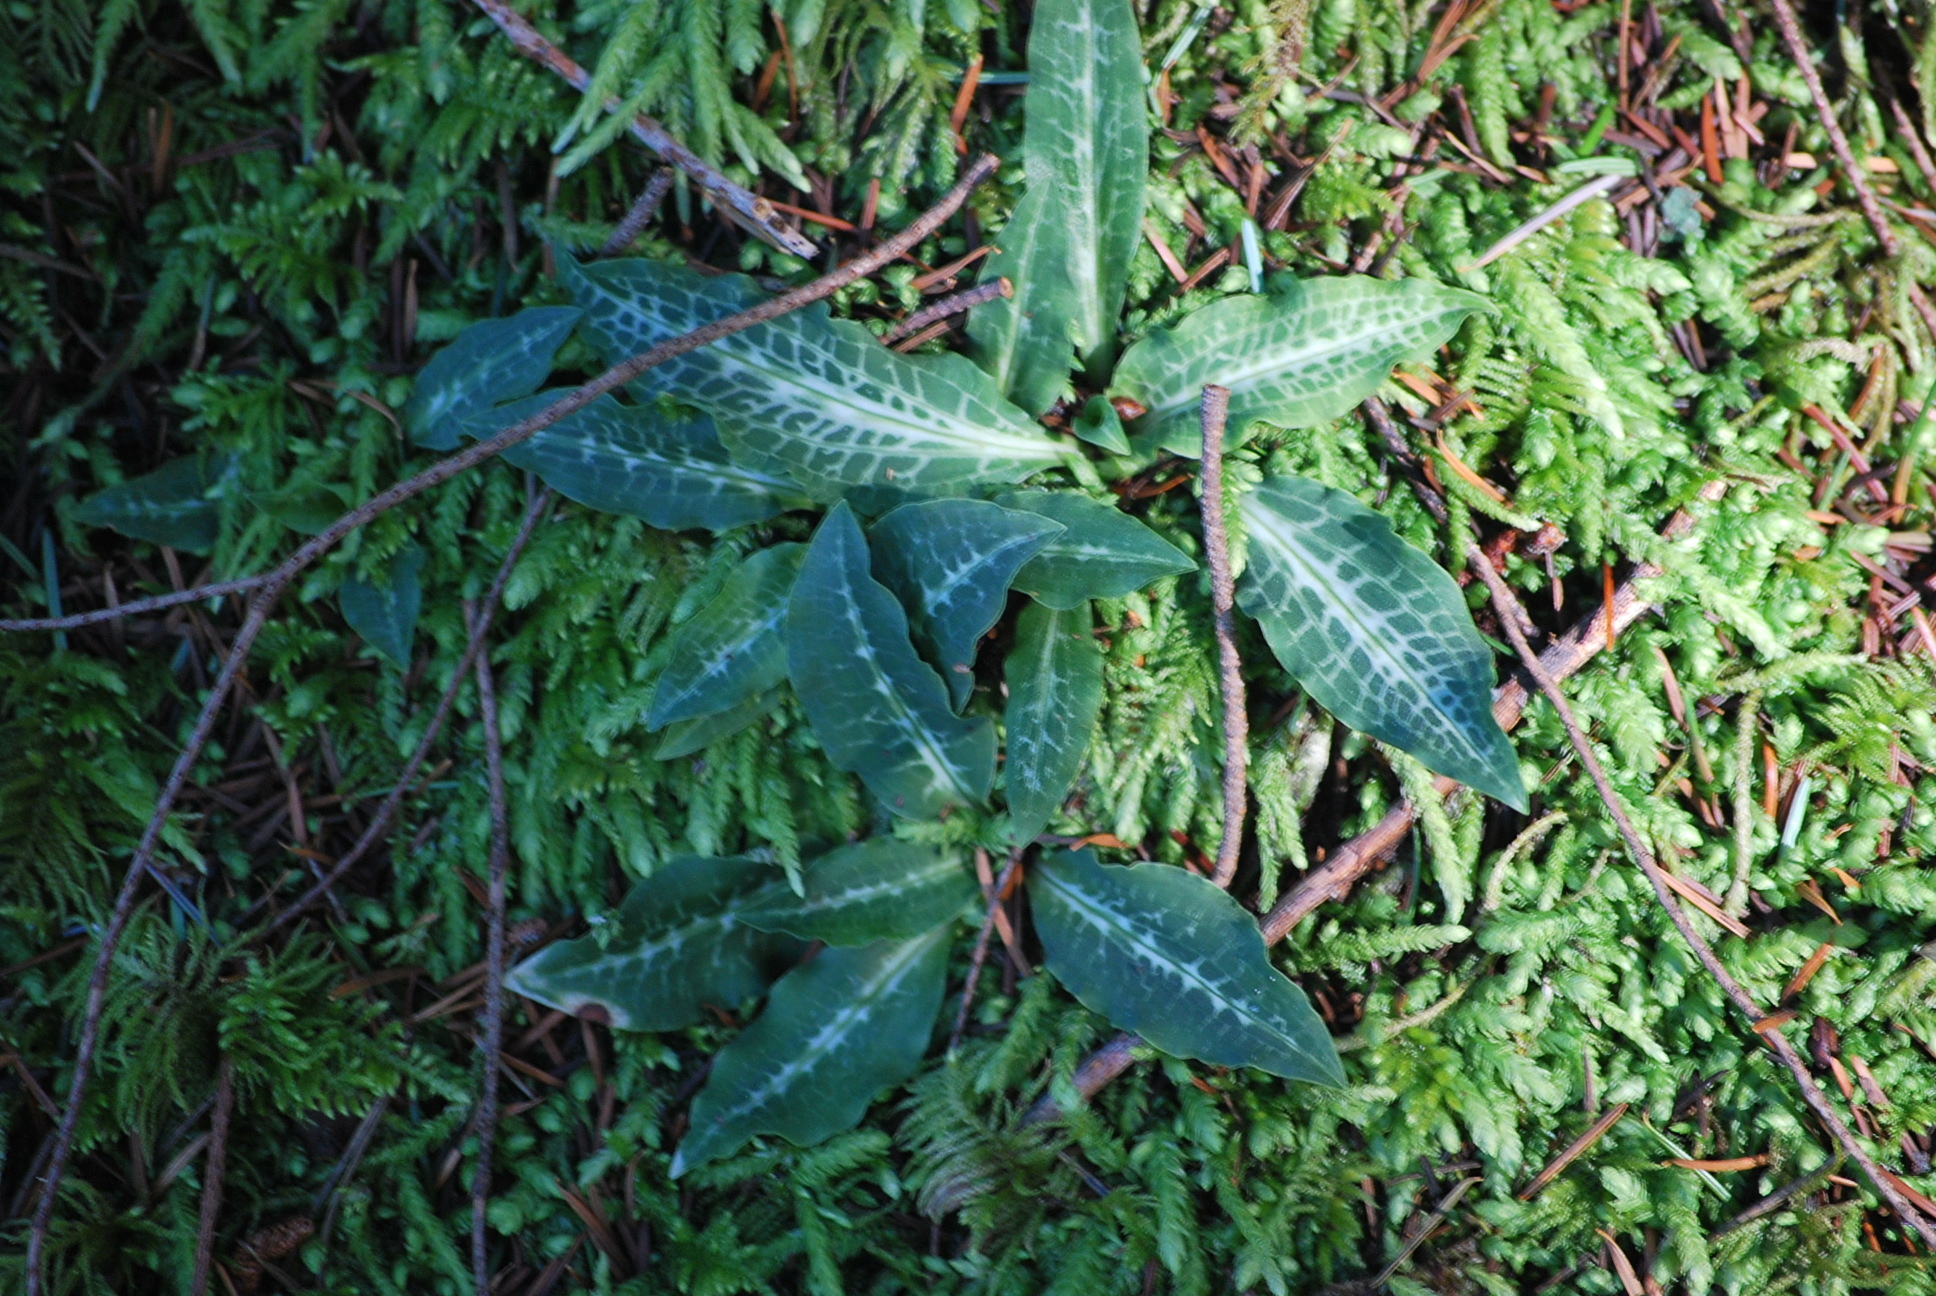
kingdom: Plantae
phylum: Tracheophyta
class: Liliopsida
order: Asparagales
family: Orchidaceae
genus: Goodyera
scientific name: Goodyera oblongifolia
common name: Giant rattlesnake-plantain
